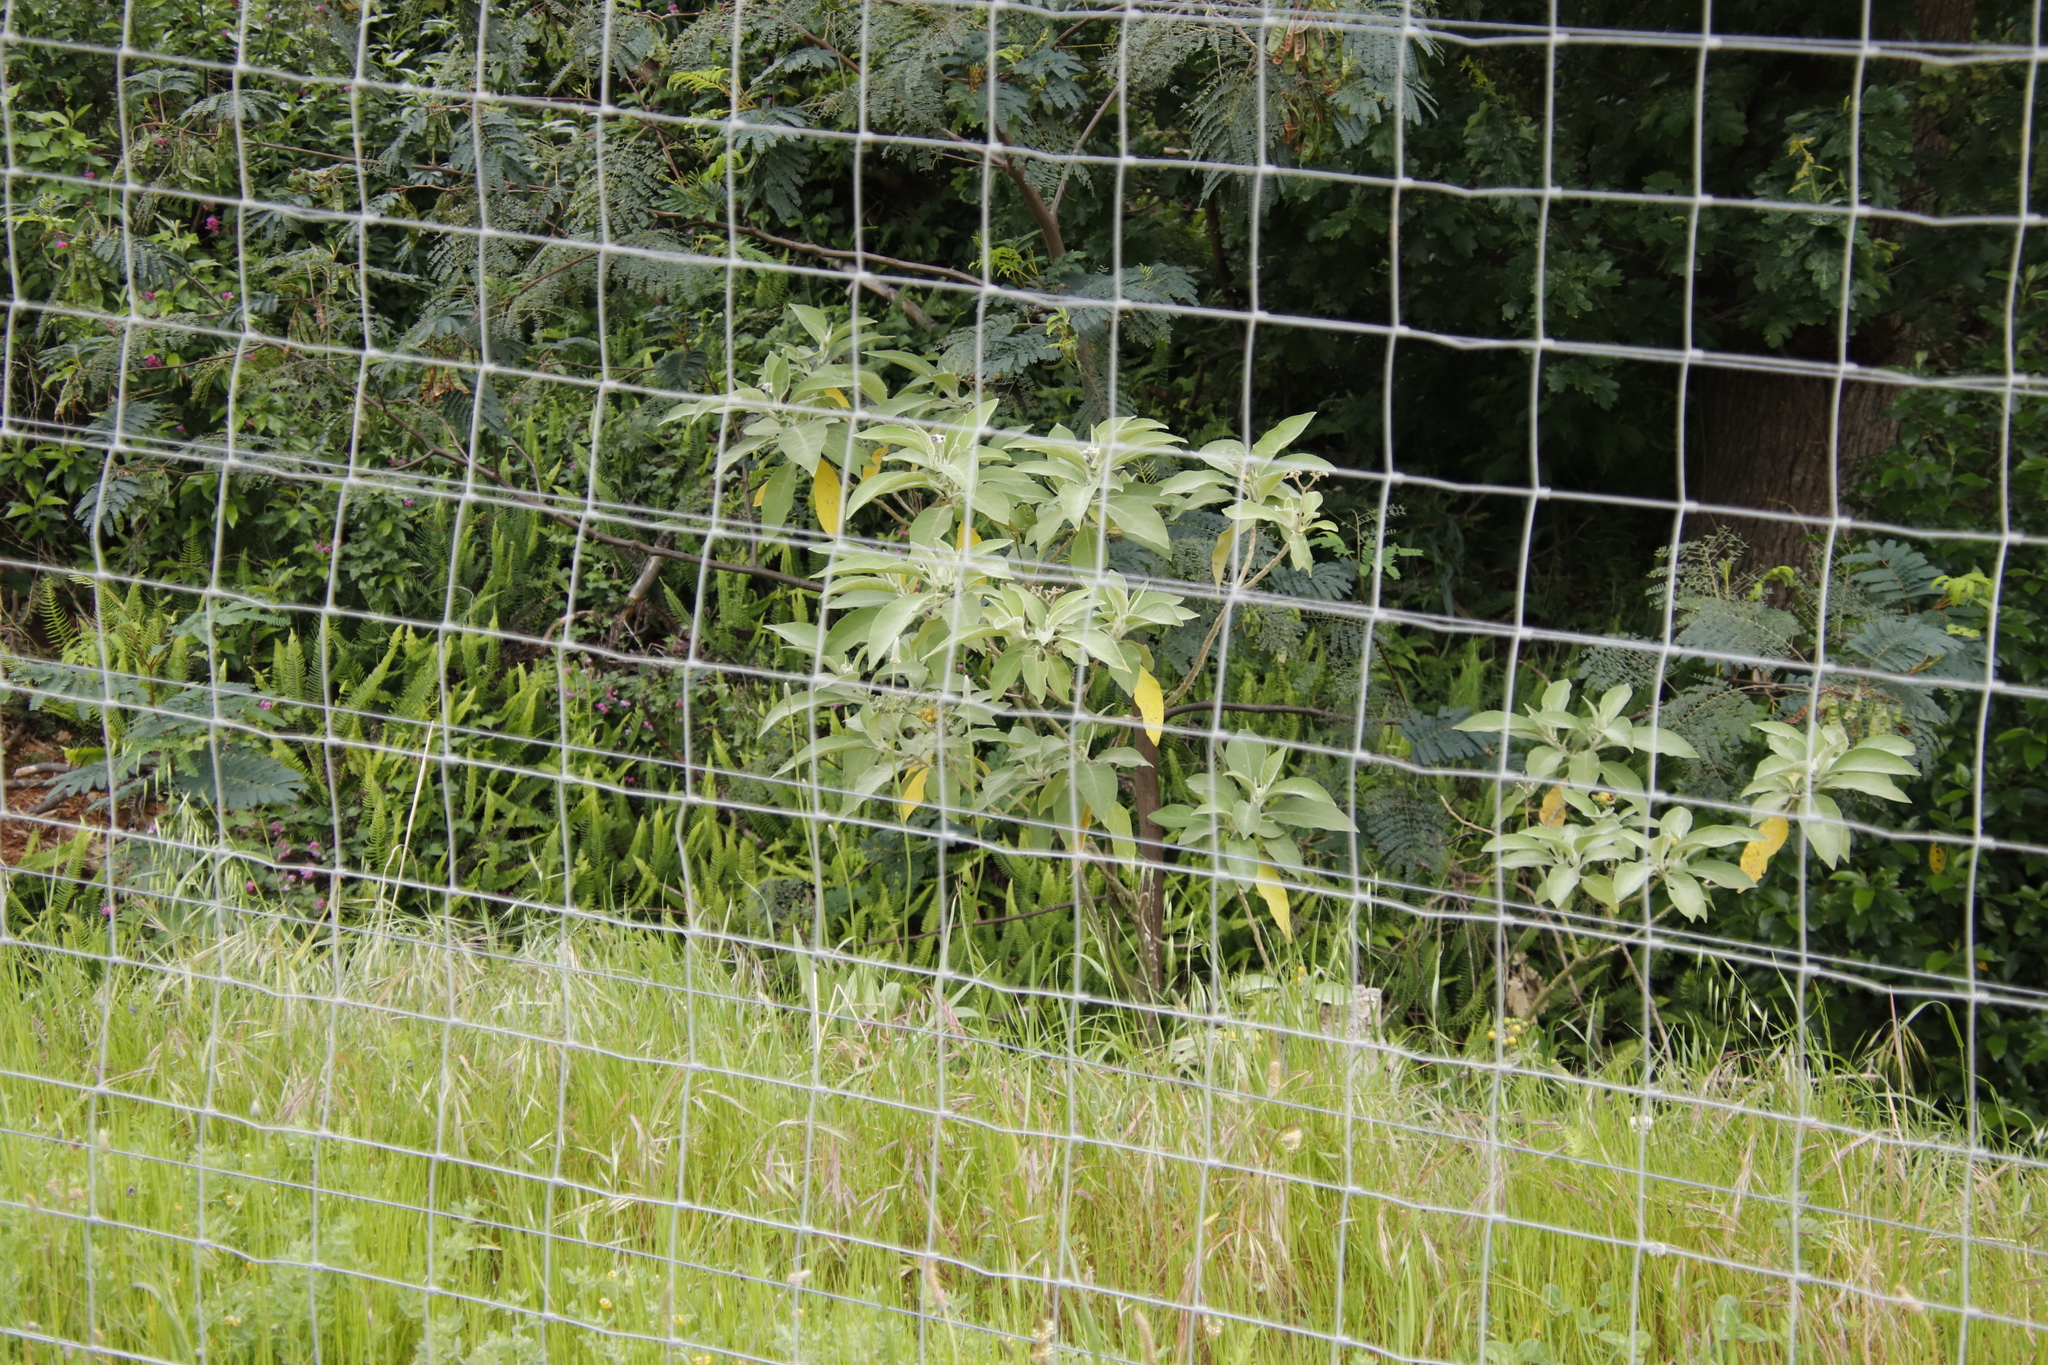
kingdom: Plantae
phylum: Tracheophyta
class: Magnoliopsida
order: Solanales
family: Solanaceae
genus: Solanum
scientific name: Solanum mauritianum
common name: Earleaf nightshade
